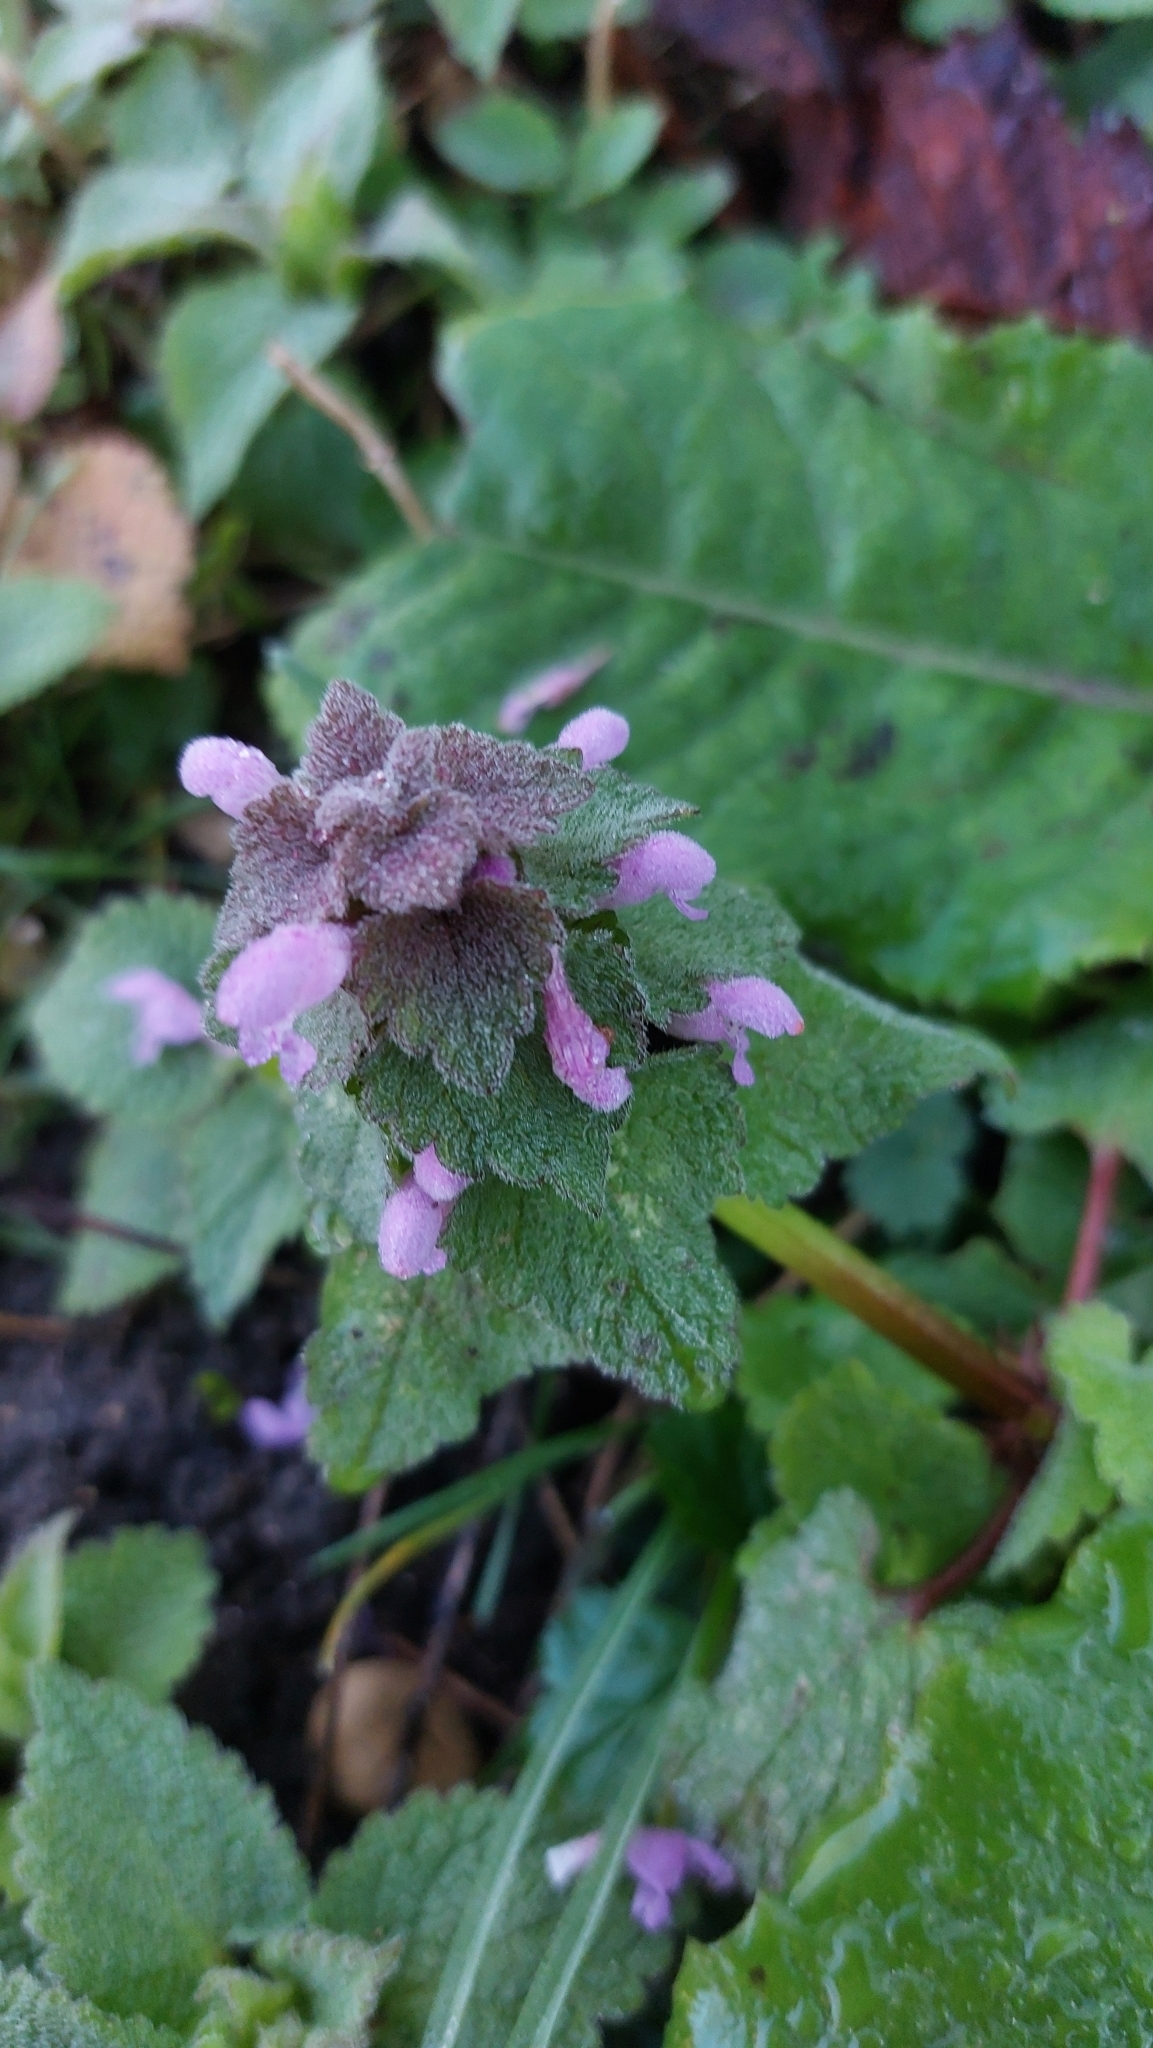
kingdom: Plantae
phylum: Tracheophyta
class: Magnoliopsida
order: Lamiales
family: Lamiaceae
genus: Lamium
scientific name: Lamium purpureum
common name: Red dead-nettle
